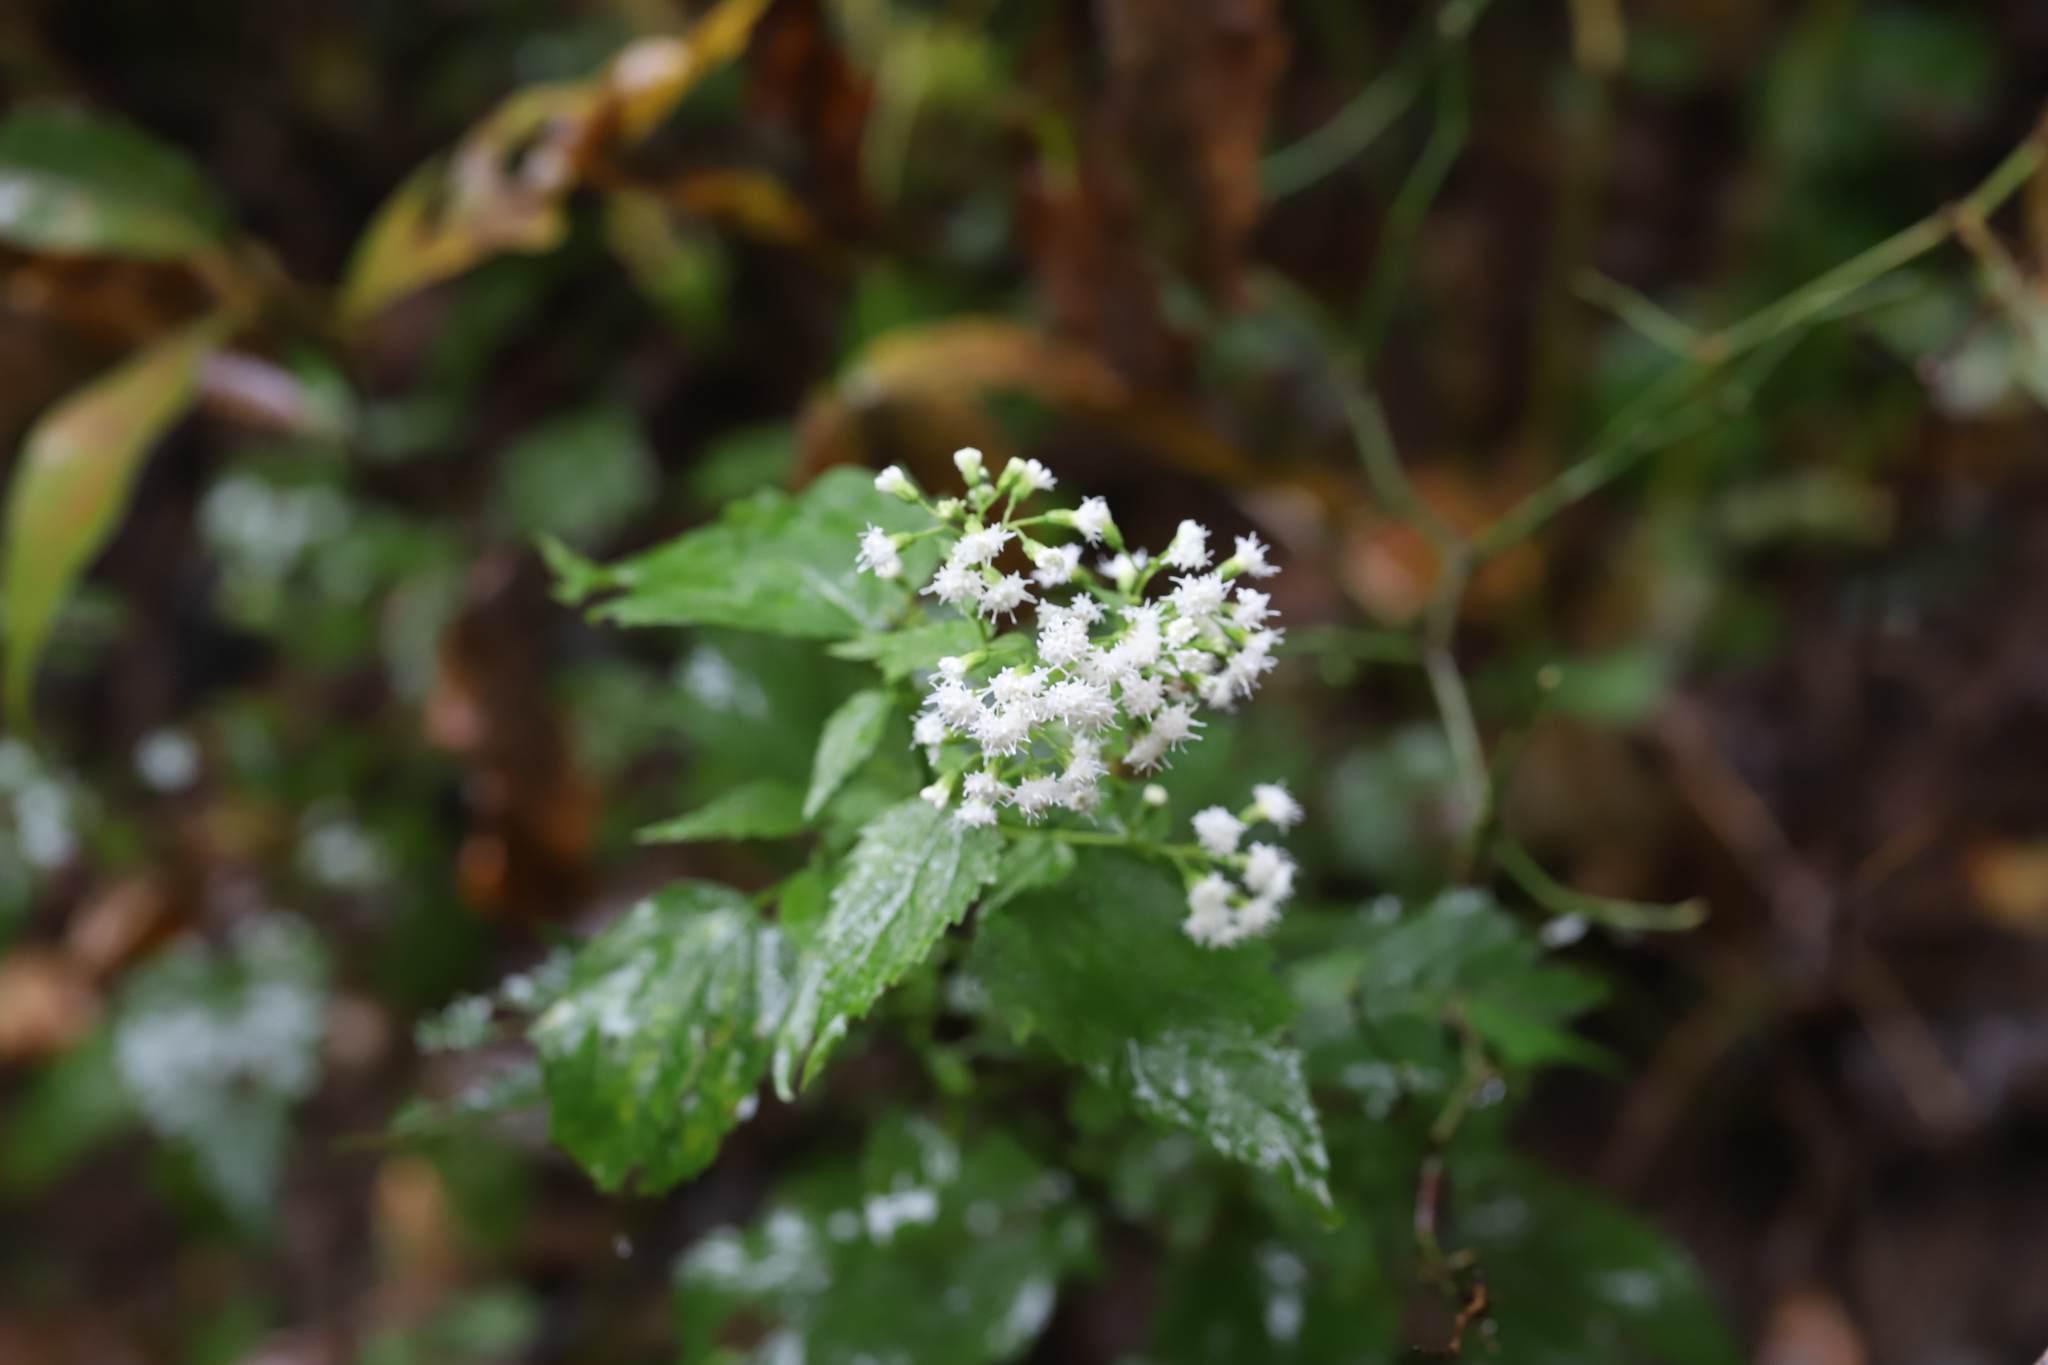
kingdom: Plantae
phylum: Tracheophyta
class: Magnoliopsida
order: Asterales
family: Asteraceae
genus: Ageratina
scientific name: Ageratina altissima
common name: White snakeroot
